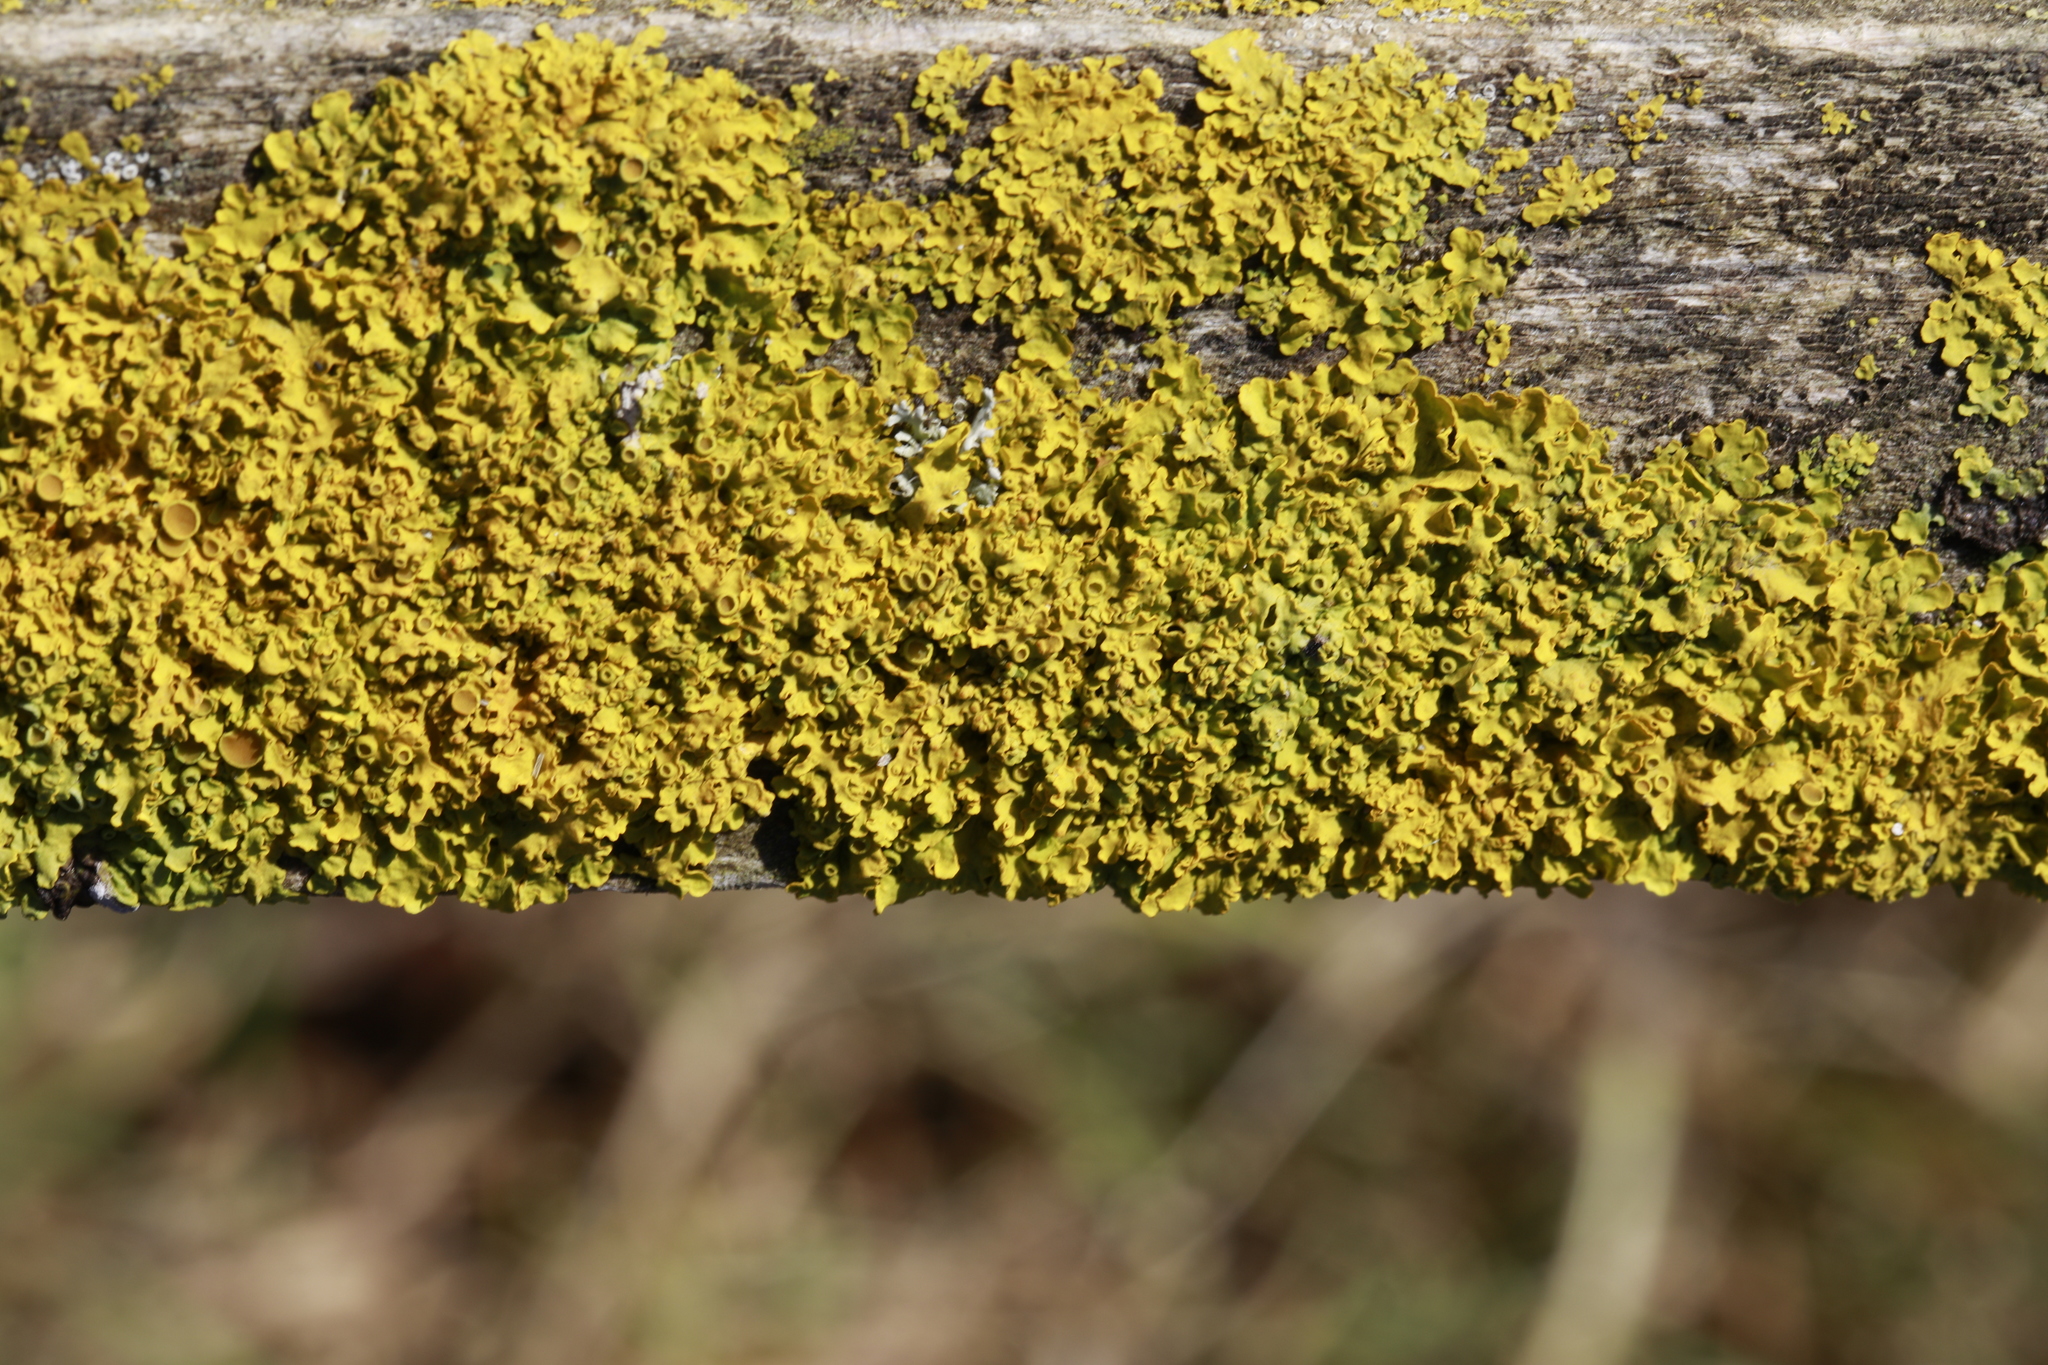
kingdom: Fungi
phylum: Ascomycota
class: Lecanoromycetes
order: Teloschistales
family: Teloschistaceae
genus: Xanthoria
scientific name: Xanthoria parietina
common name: Common orange lichen
